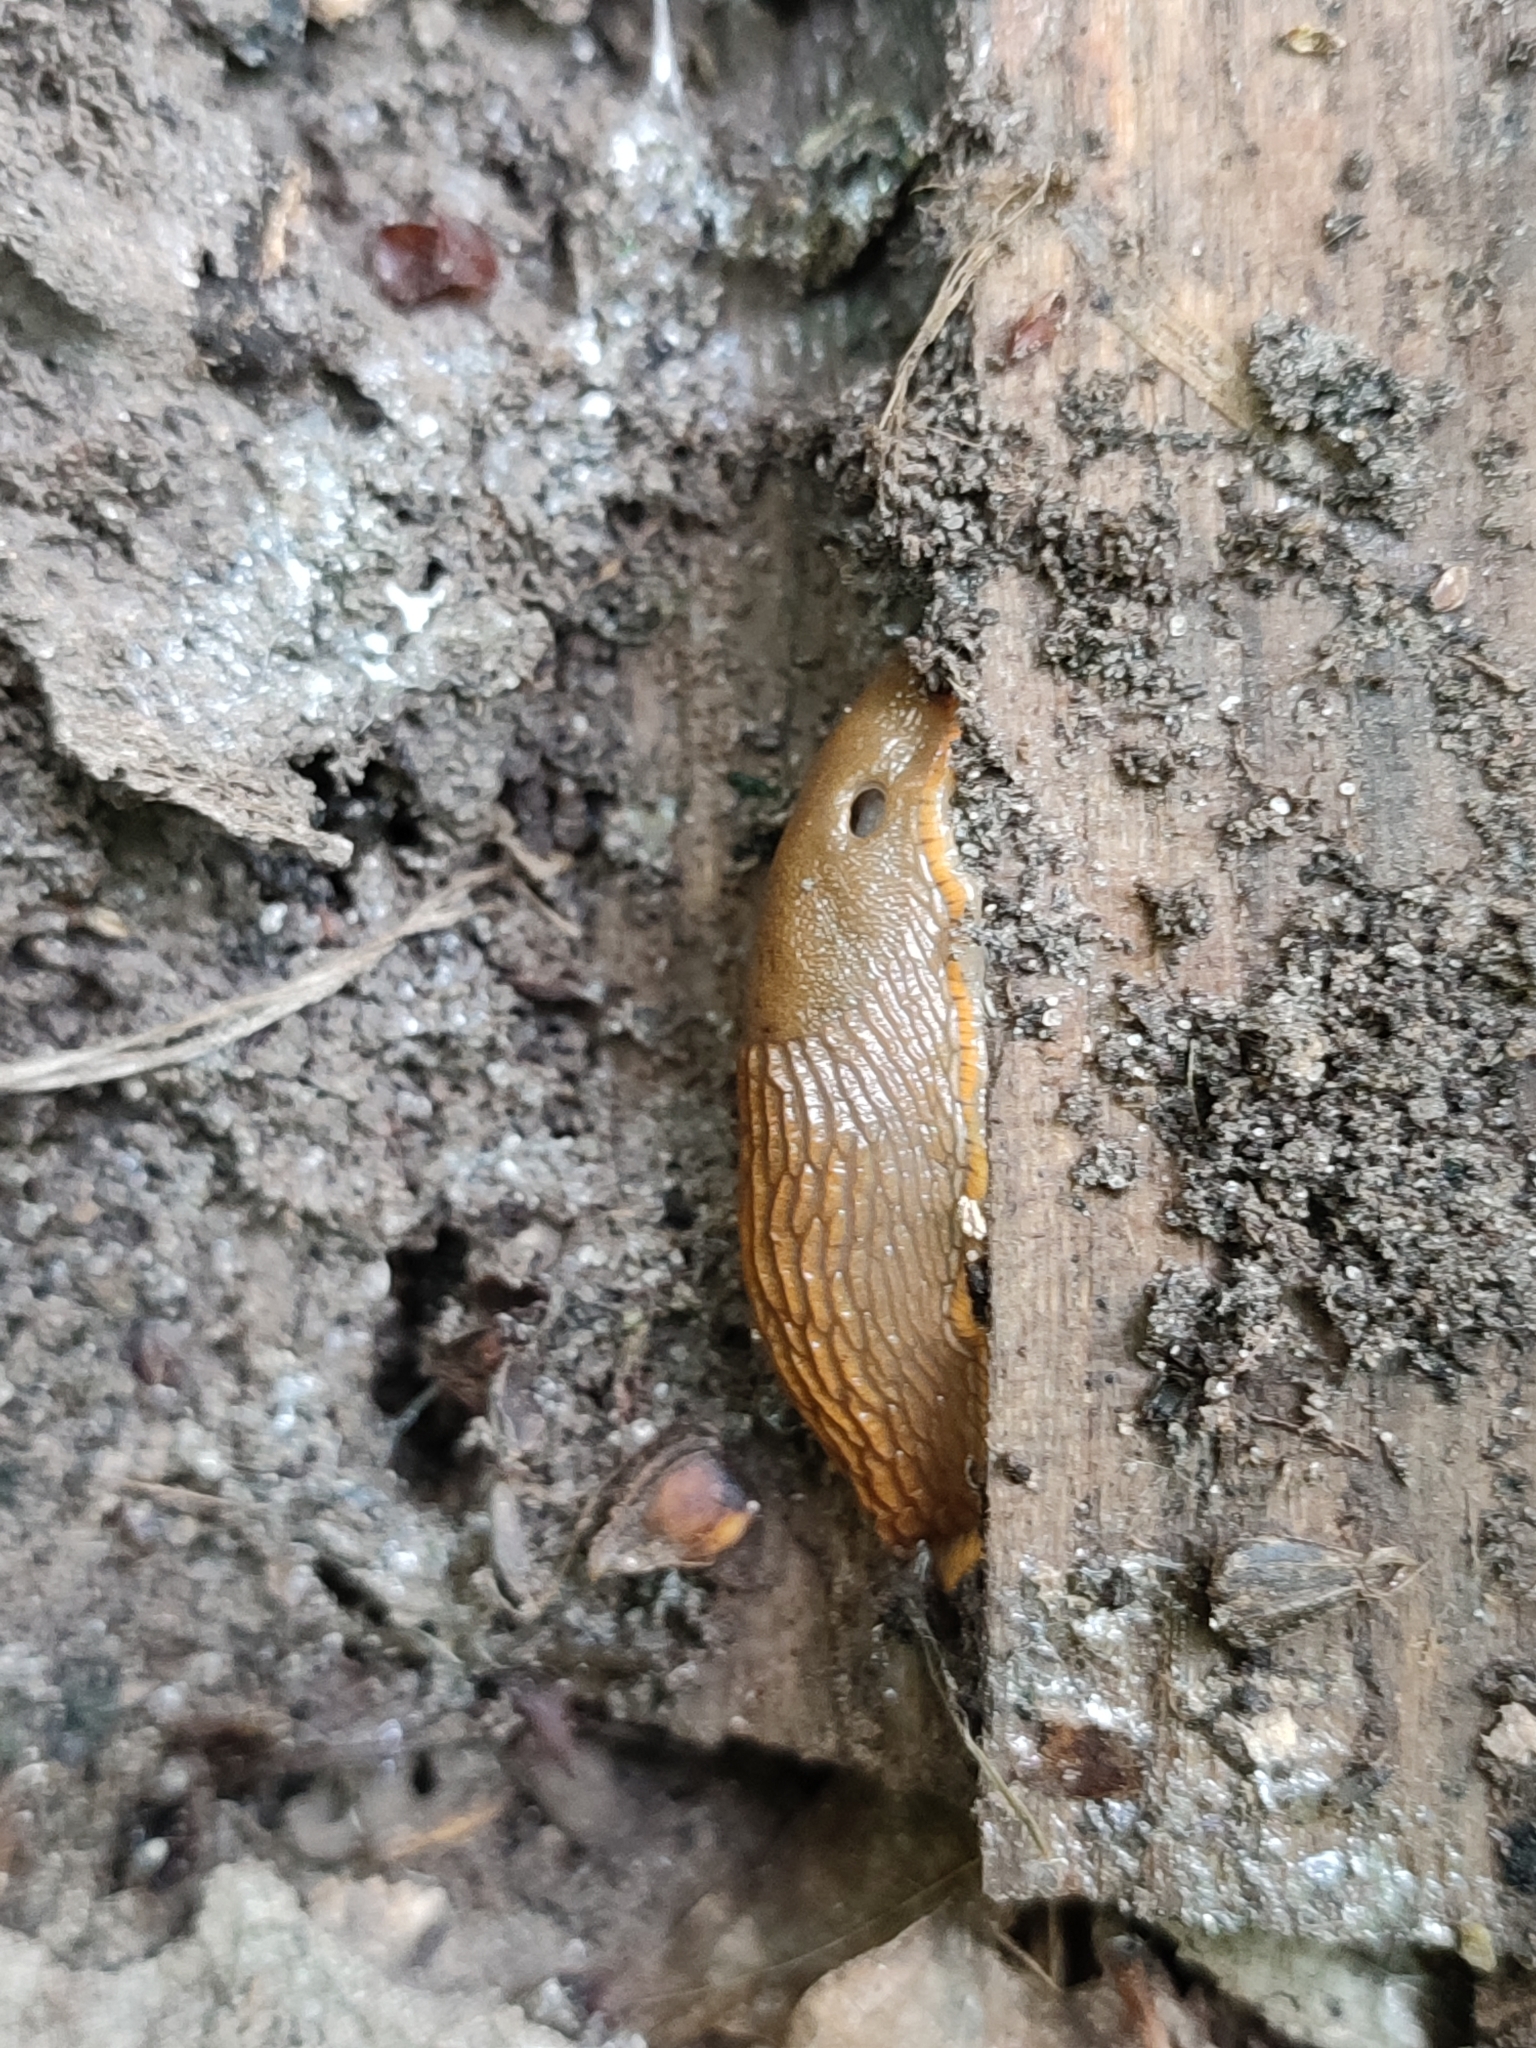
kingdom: Animalia
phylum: Mollusca
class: Gastropoda
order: Stylommatophora
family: Arionidae
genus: Arion
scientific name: Arion vulgaris
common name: Lusitanian slug
